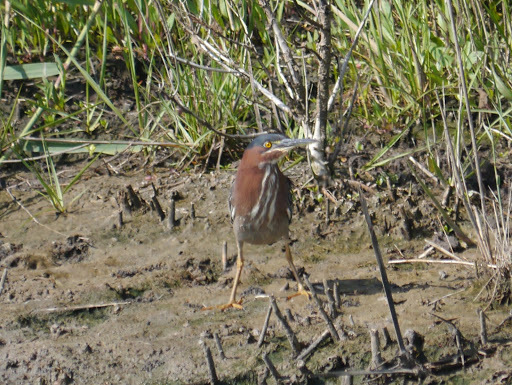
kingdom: Animalia
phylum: Chordata
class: Aves
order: Pelecaniformes
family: Ardeidae
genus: Butorides
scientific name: Butorides virescens
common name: Green heron
